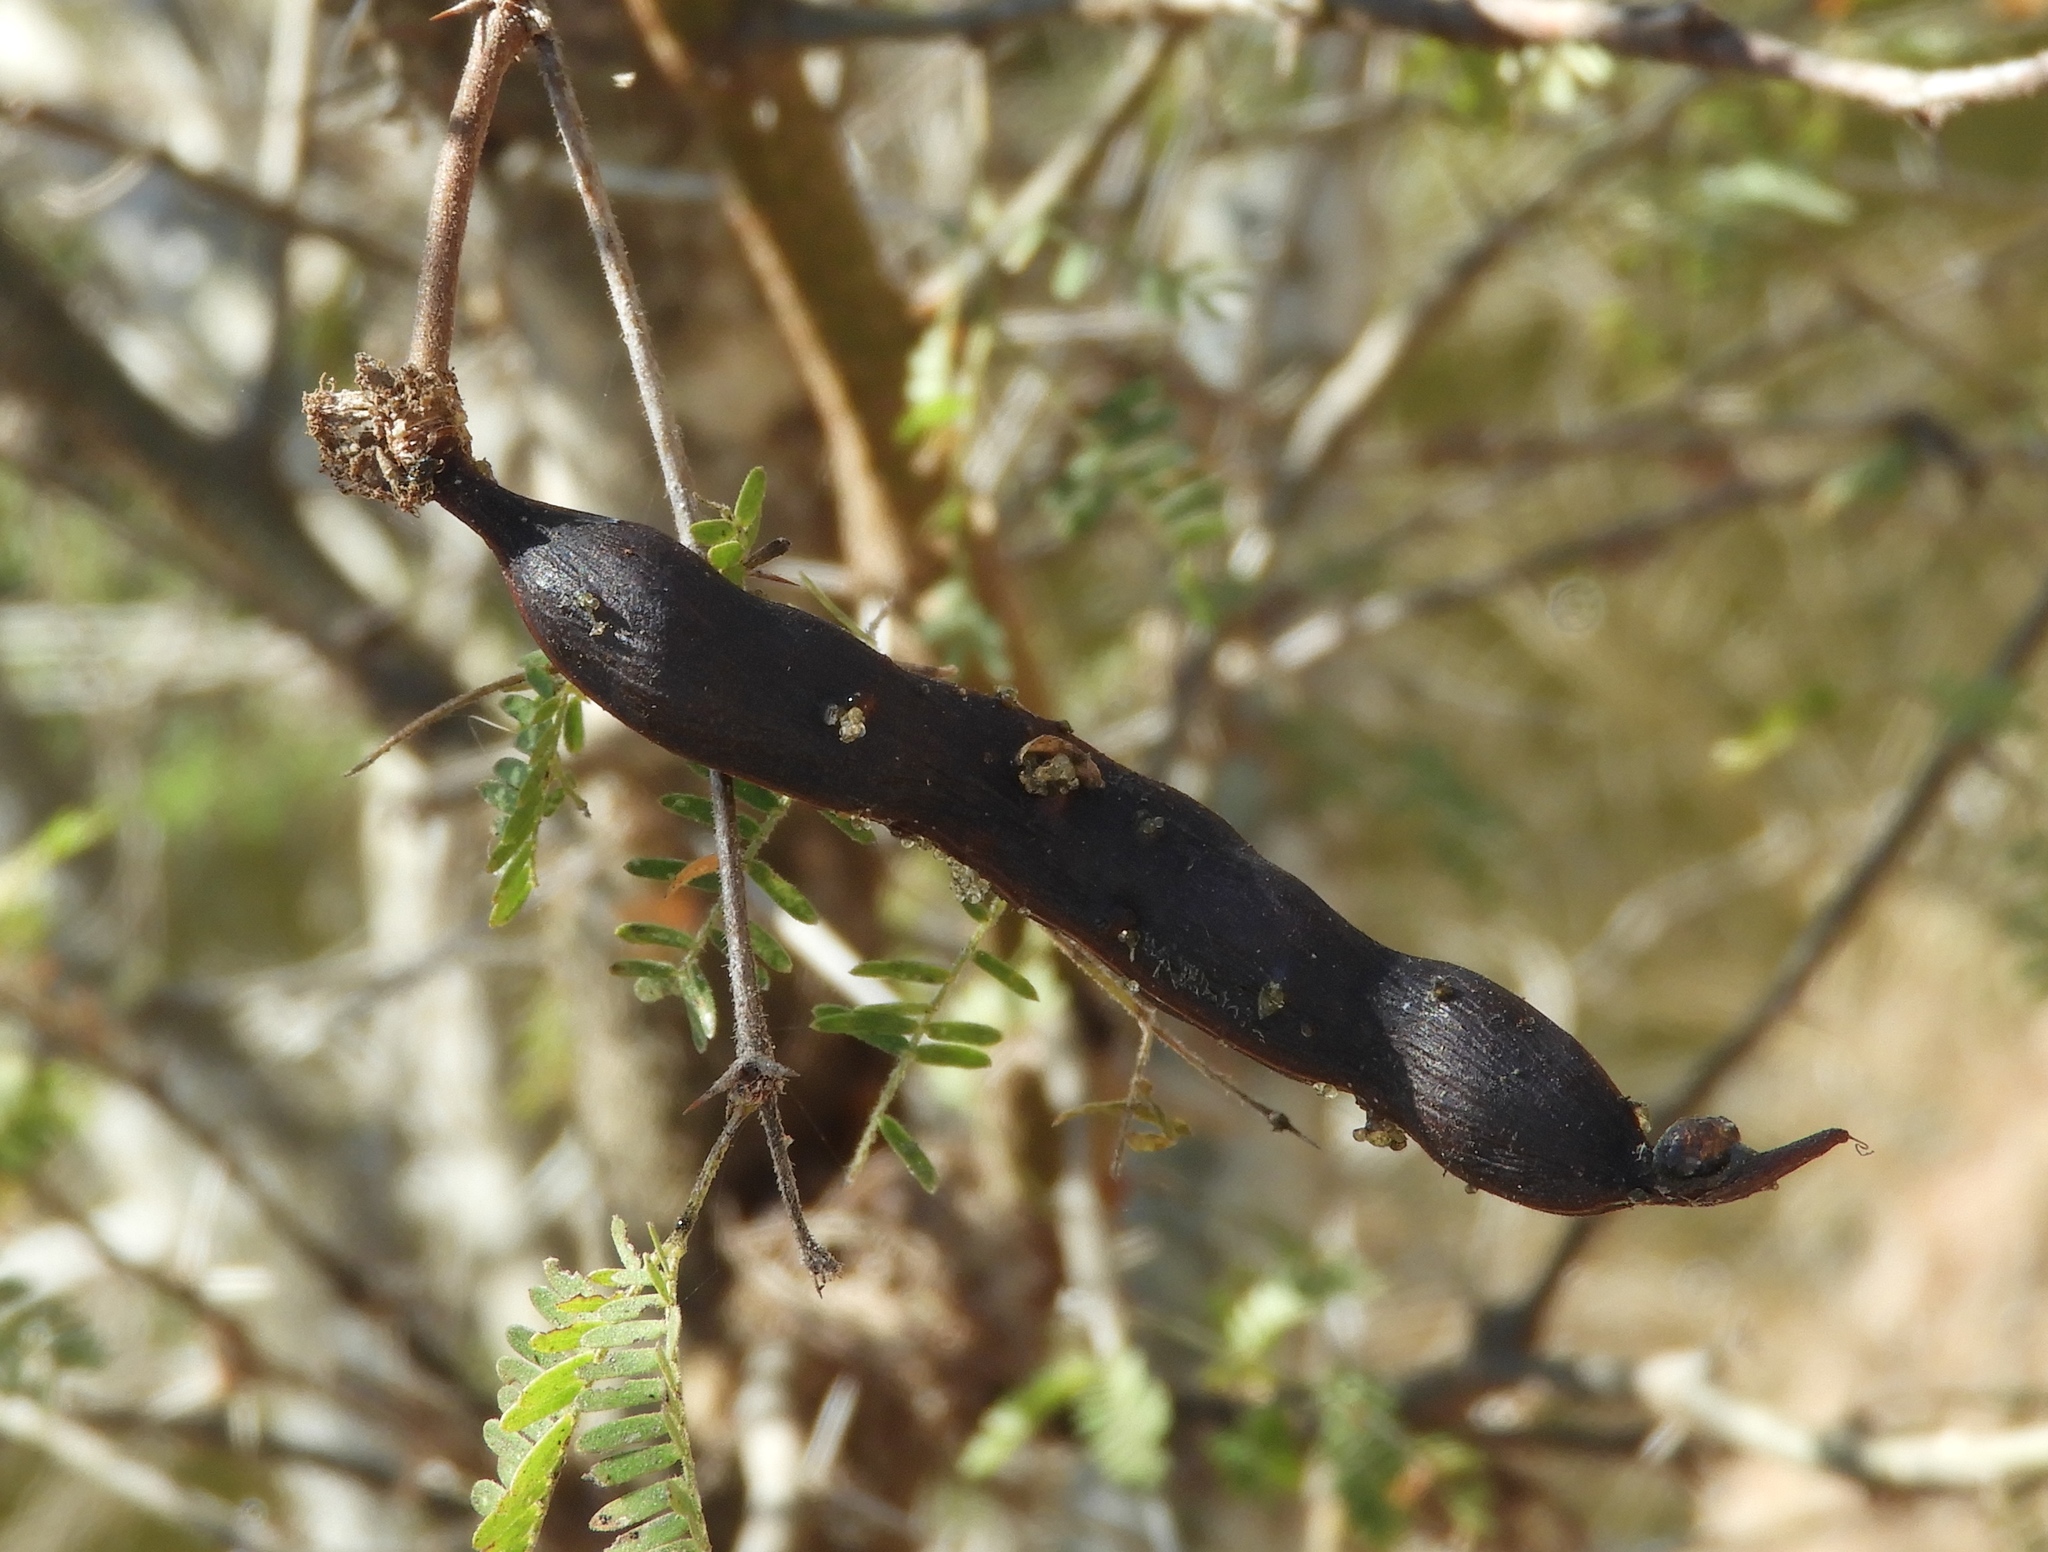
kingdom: Plantae
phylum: Tracheophyta
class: Magnoliopsida
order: Fabales
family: Fabaceae
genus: Vachellia
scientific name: Vachellia farnesiana
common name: Sweet acacia
